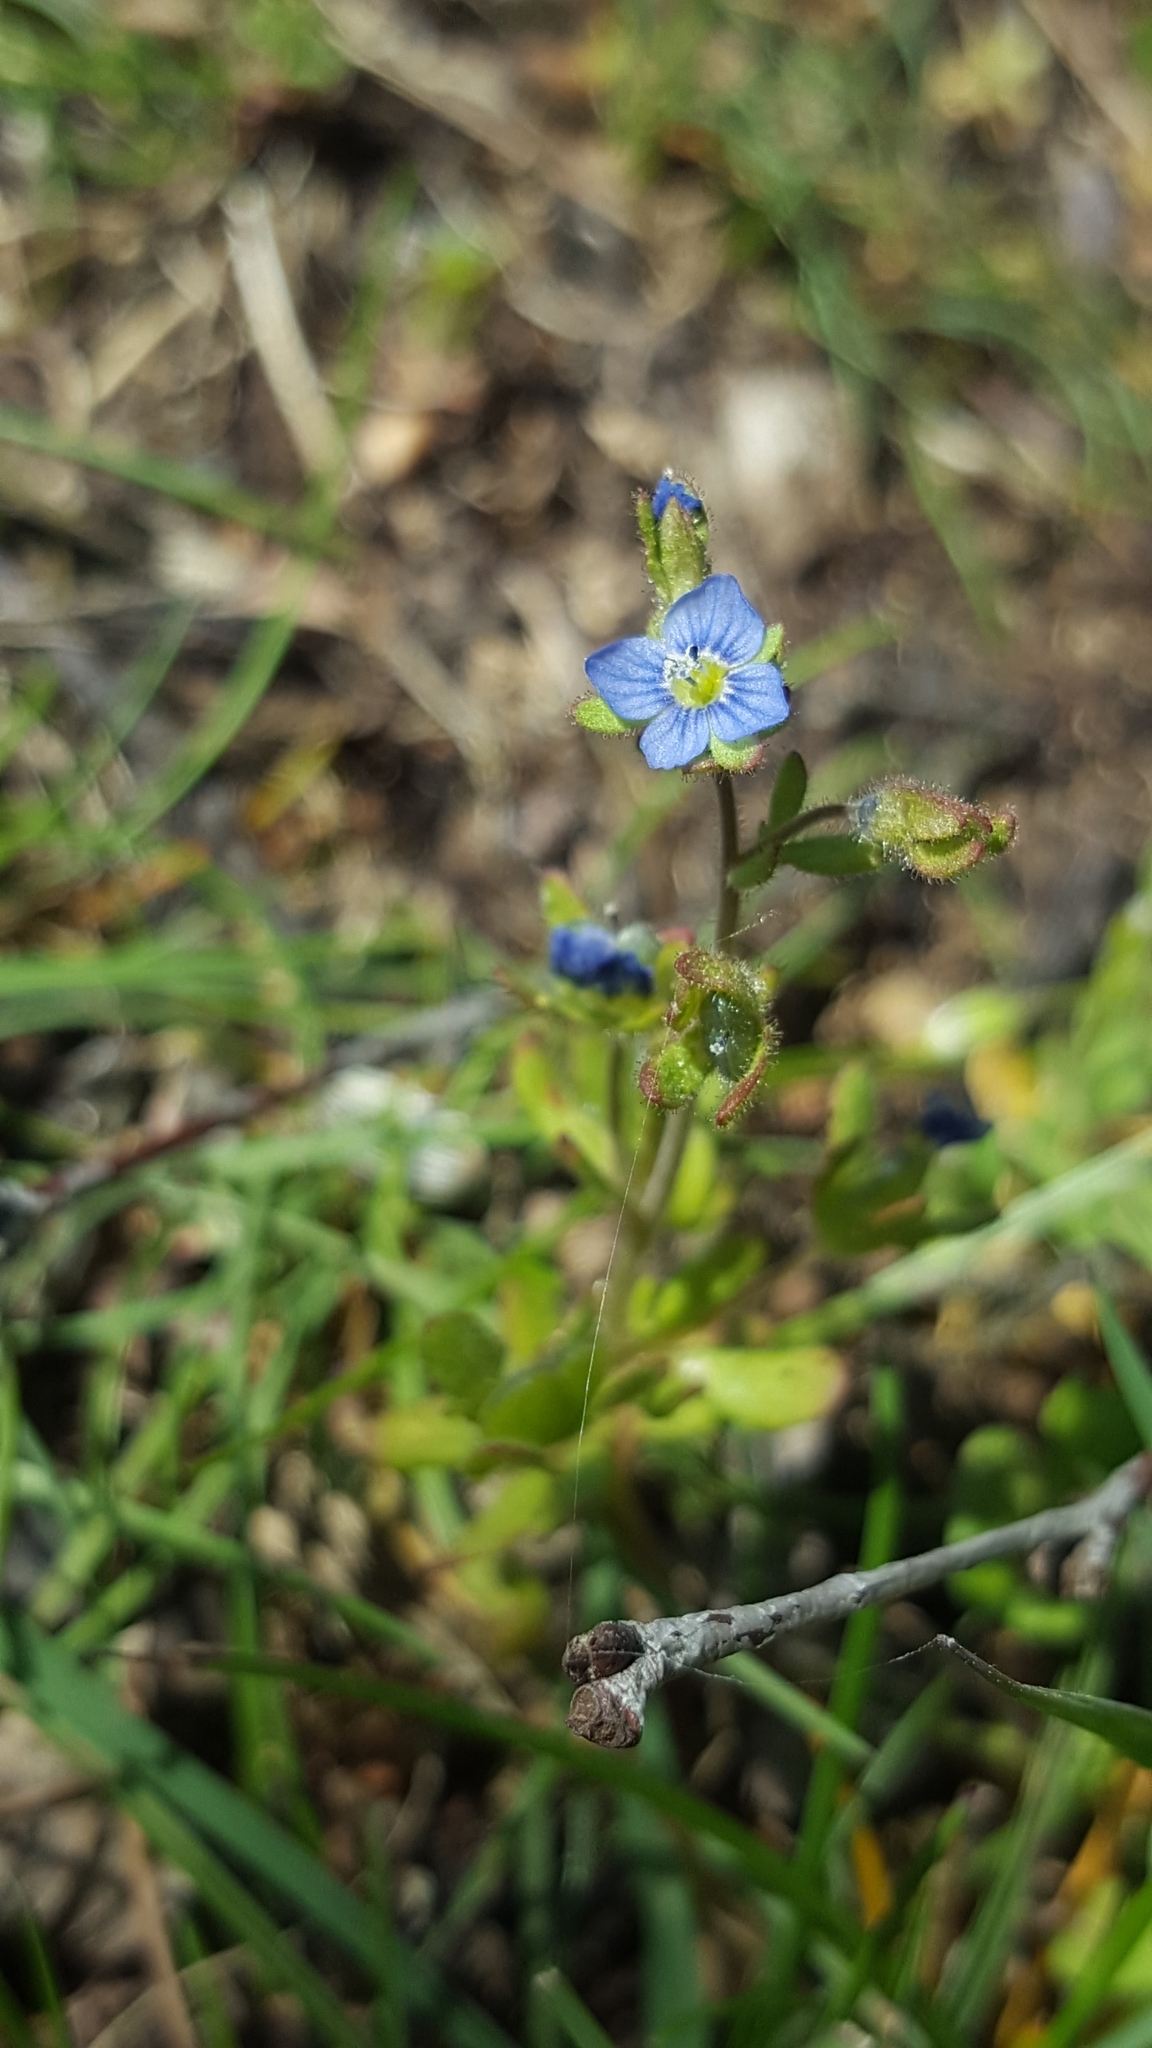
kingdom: Plantae
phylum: Tracheophyta
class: Magnoliopsida
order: Lamiales
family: Plantaginaceae
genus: Veronica
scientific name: Veronica triphyllos
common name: Fingered speedwell
